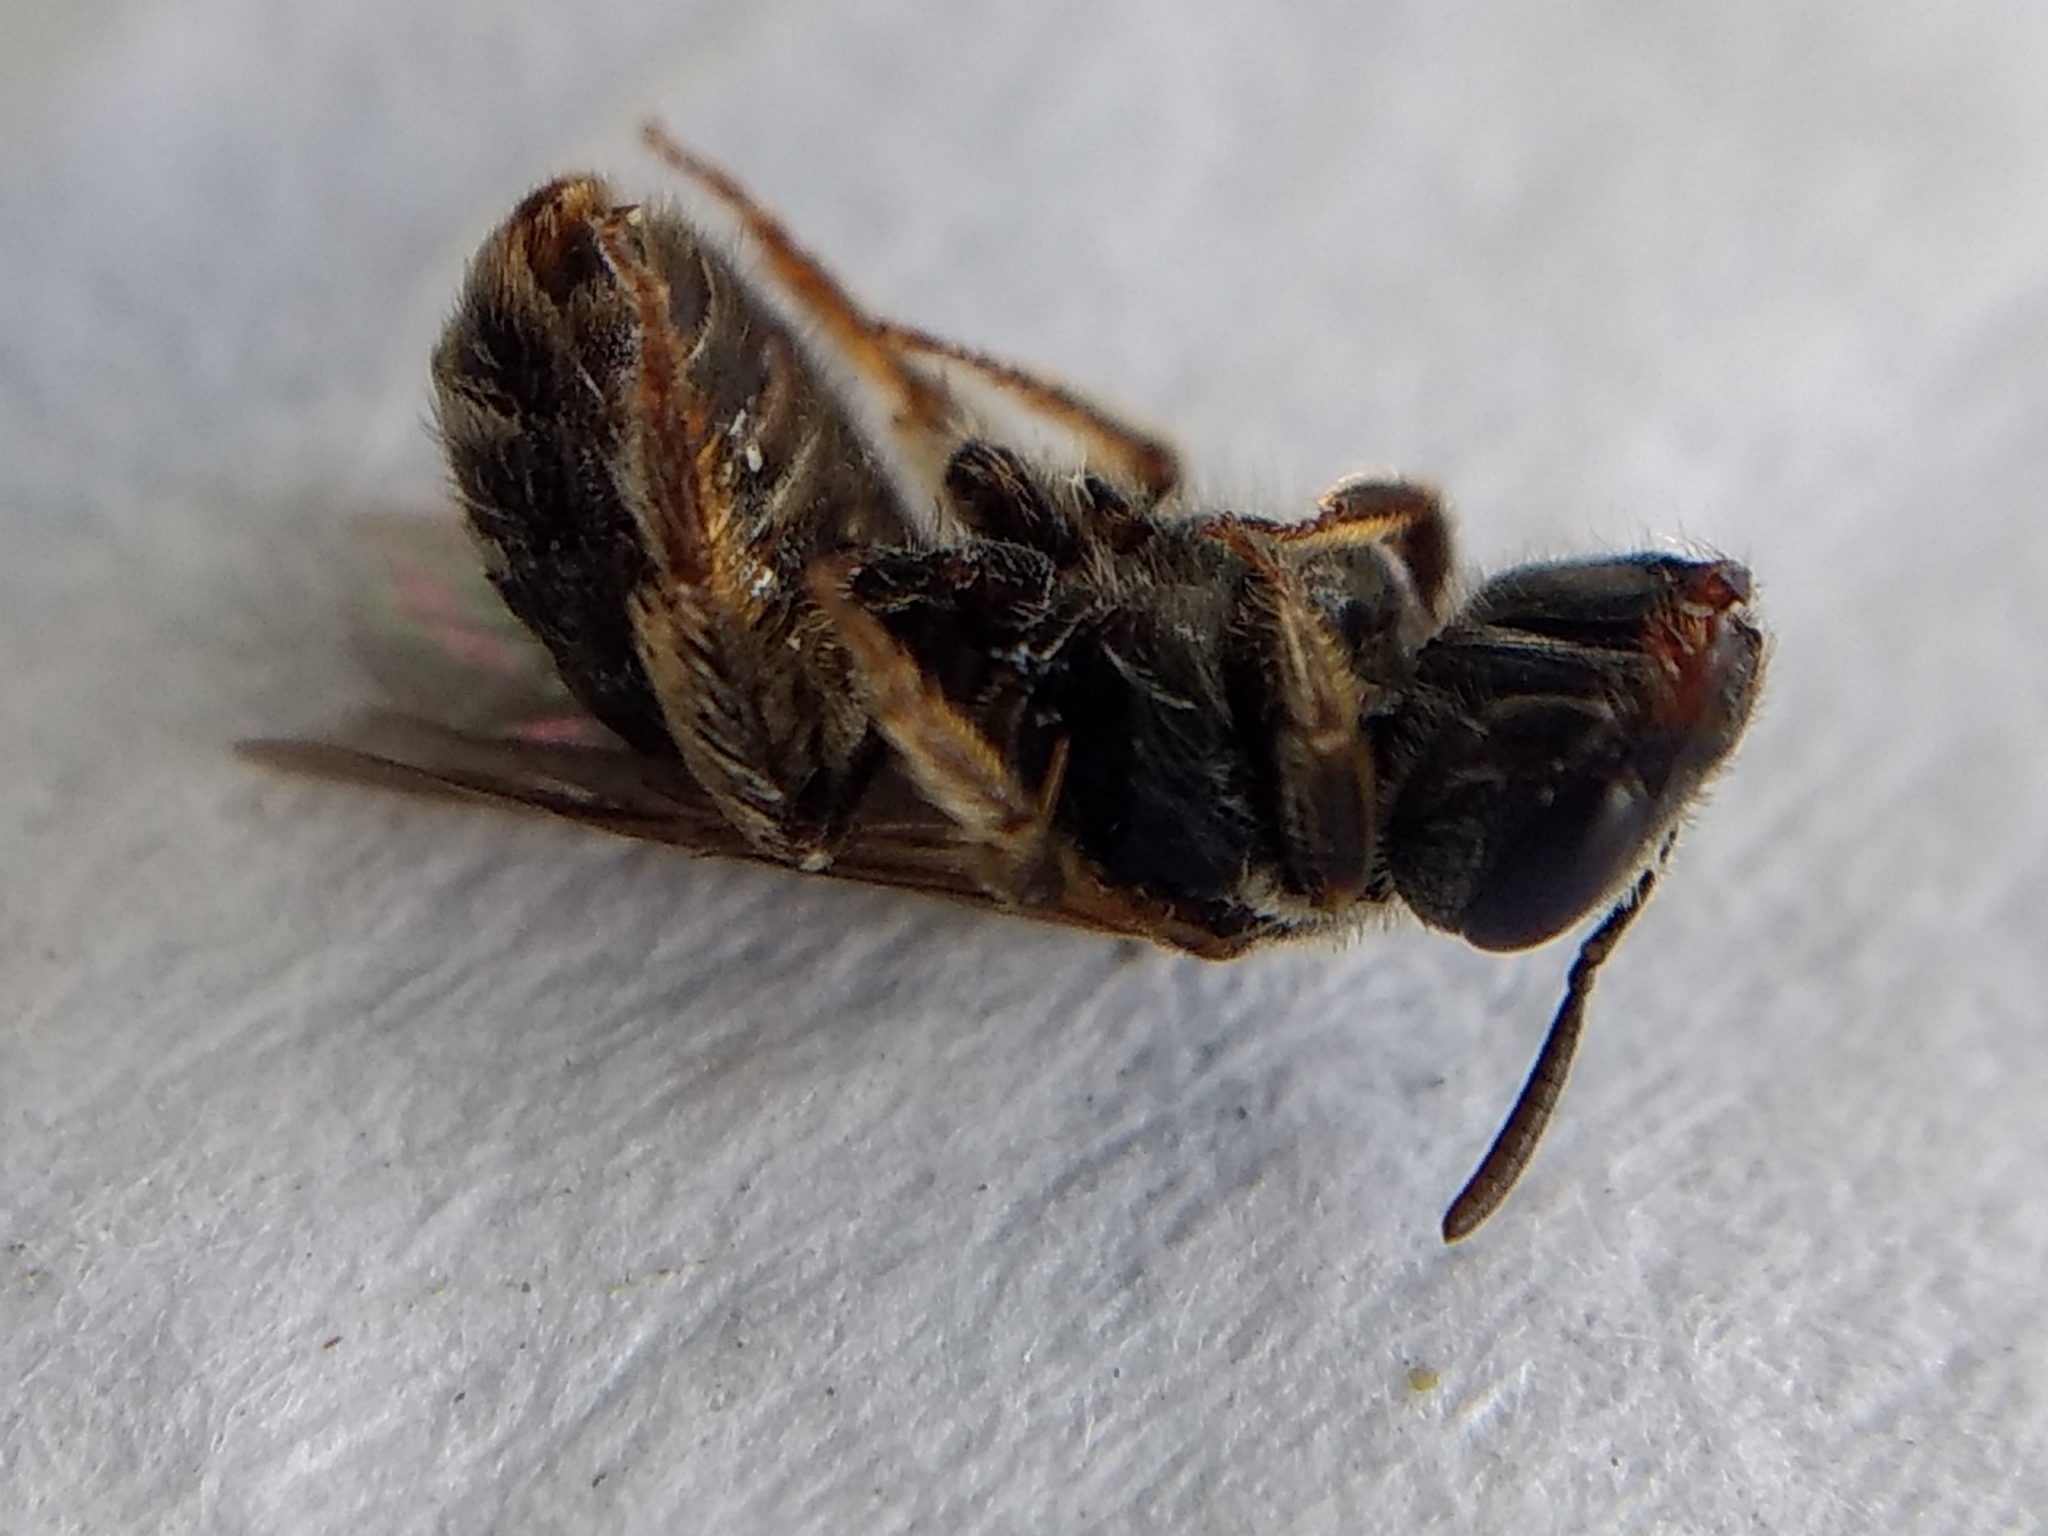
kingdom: Animalia
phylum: Arthropoda
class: Insecta
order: Hymenoptera
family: Halictidae
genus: Halictus
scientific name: Halictus tripartitus
